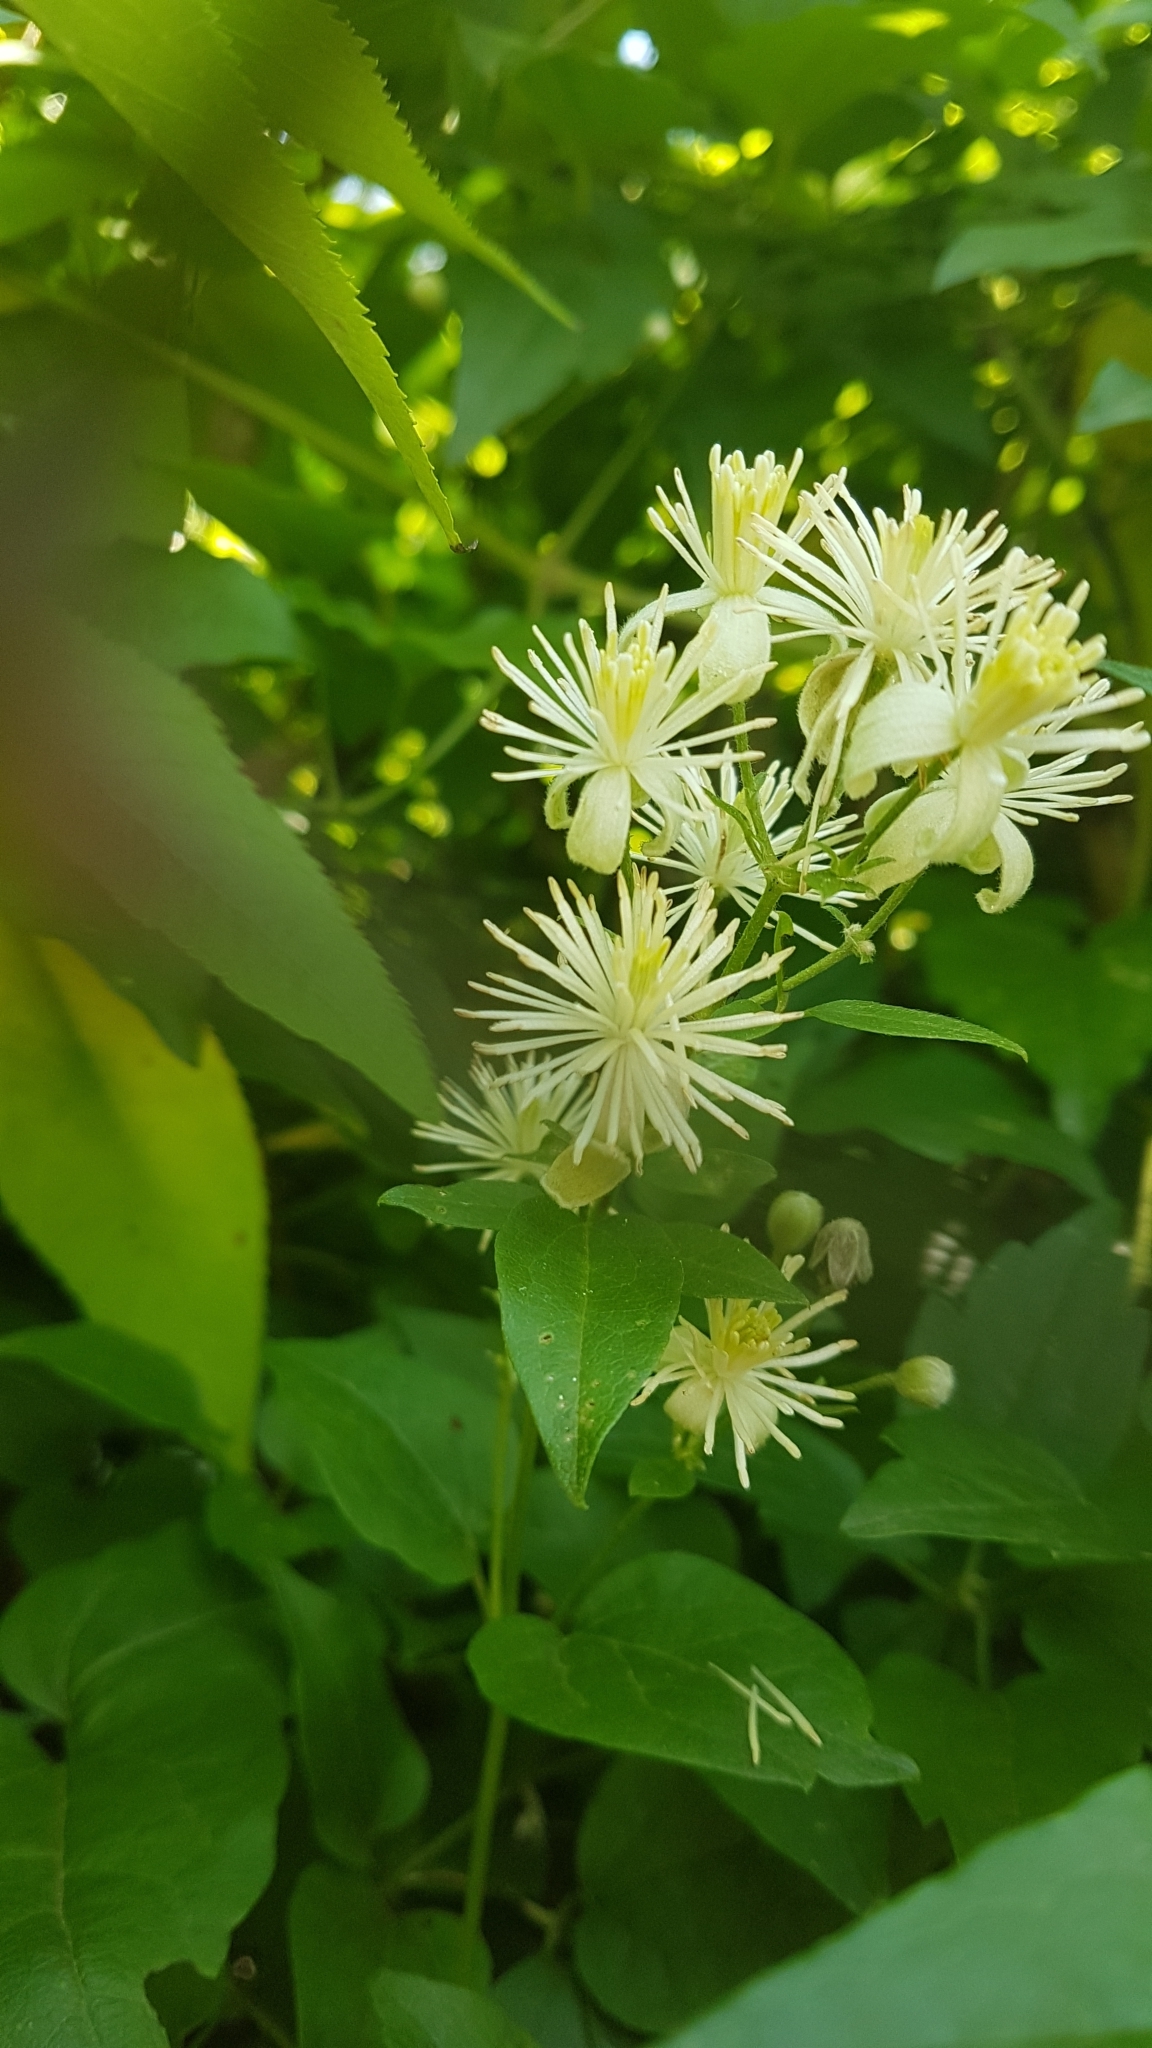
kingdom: Plantae
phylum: Tracheophyta
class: Magnoliopsida
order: Ranunculales
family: Ranunculaceae
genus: Clematis
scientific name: Clematis vitalba
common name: Evergreen clematis
